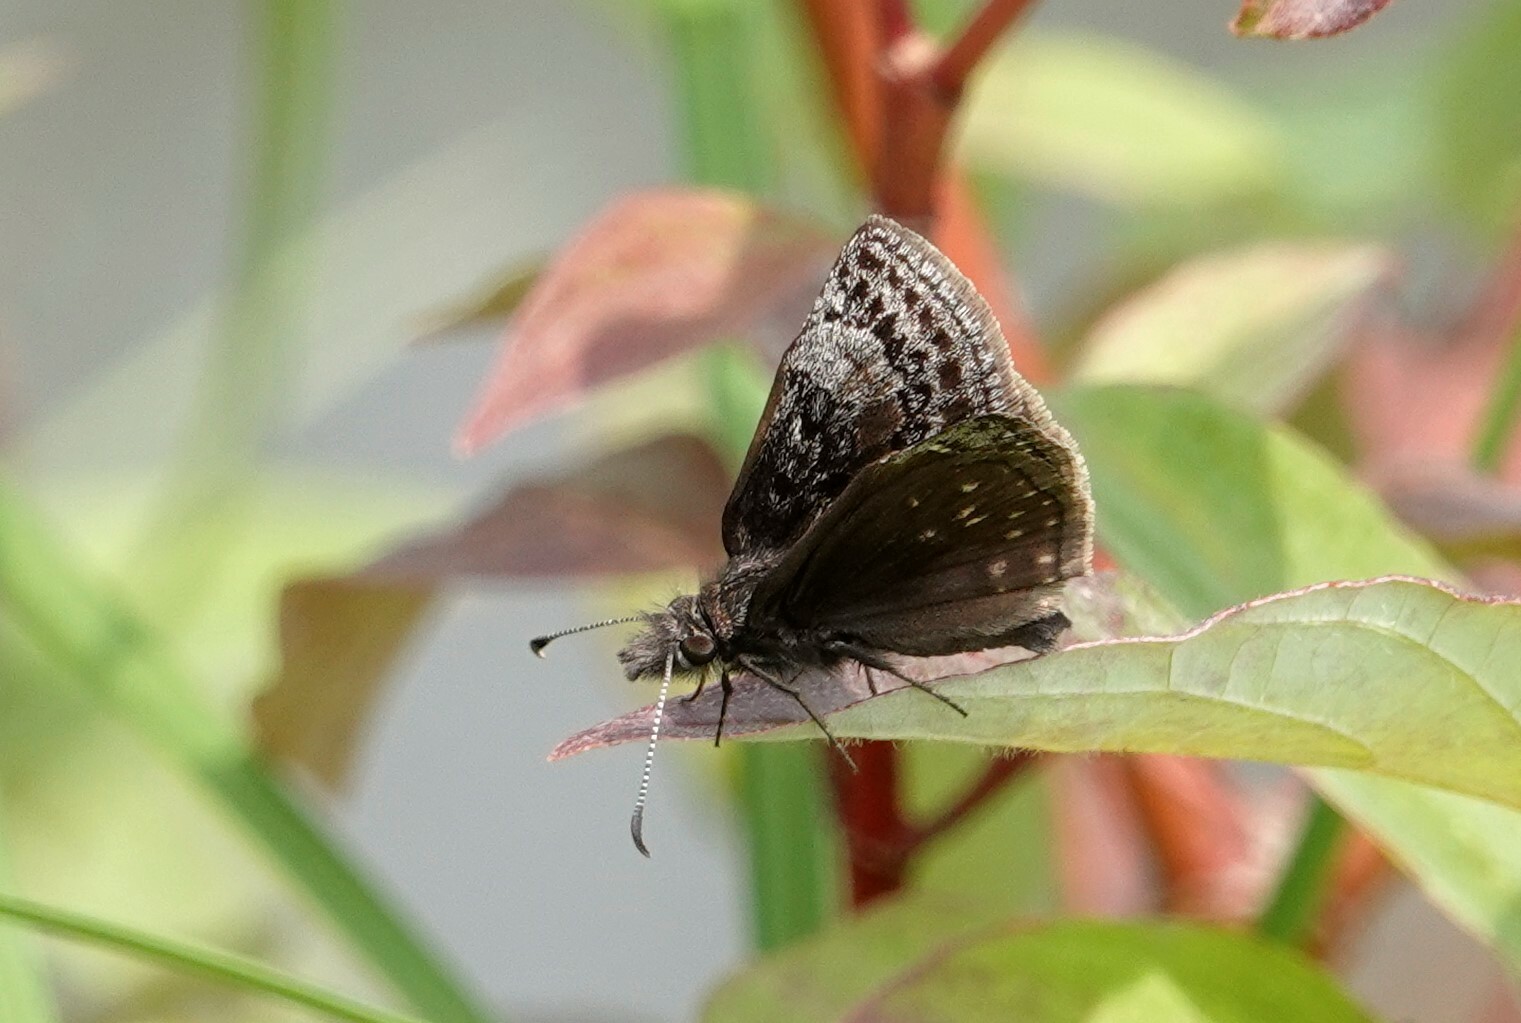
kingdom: Animalia
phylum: Arthropoda
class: Insecta
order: Lepidoptera
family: Hesperiidae
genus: Erynnis
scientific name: Erynnis icelus
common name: Dreamy duskywing
